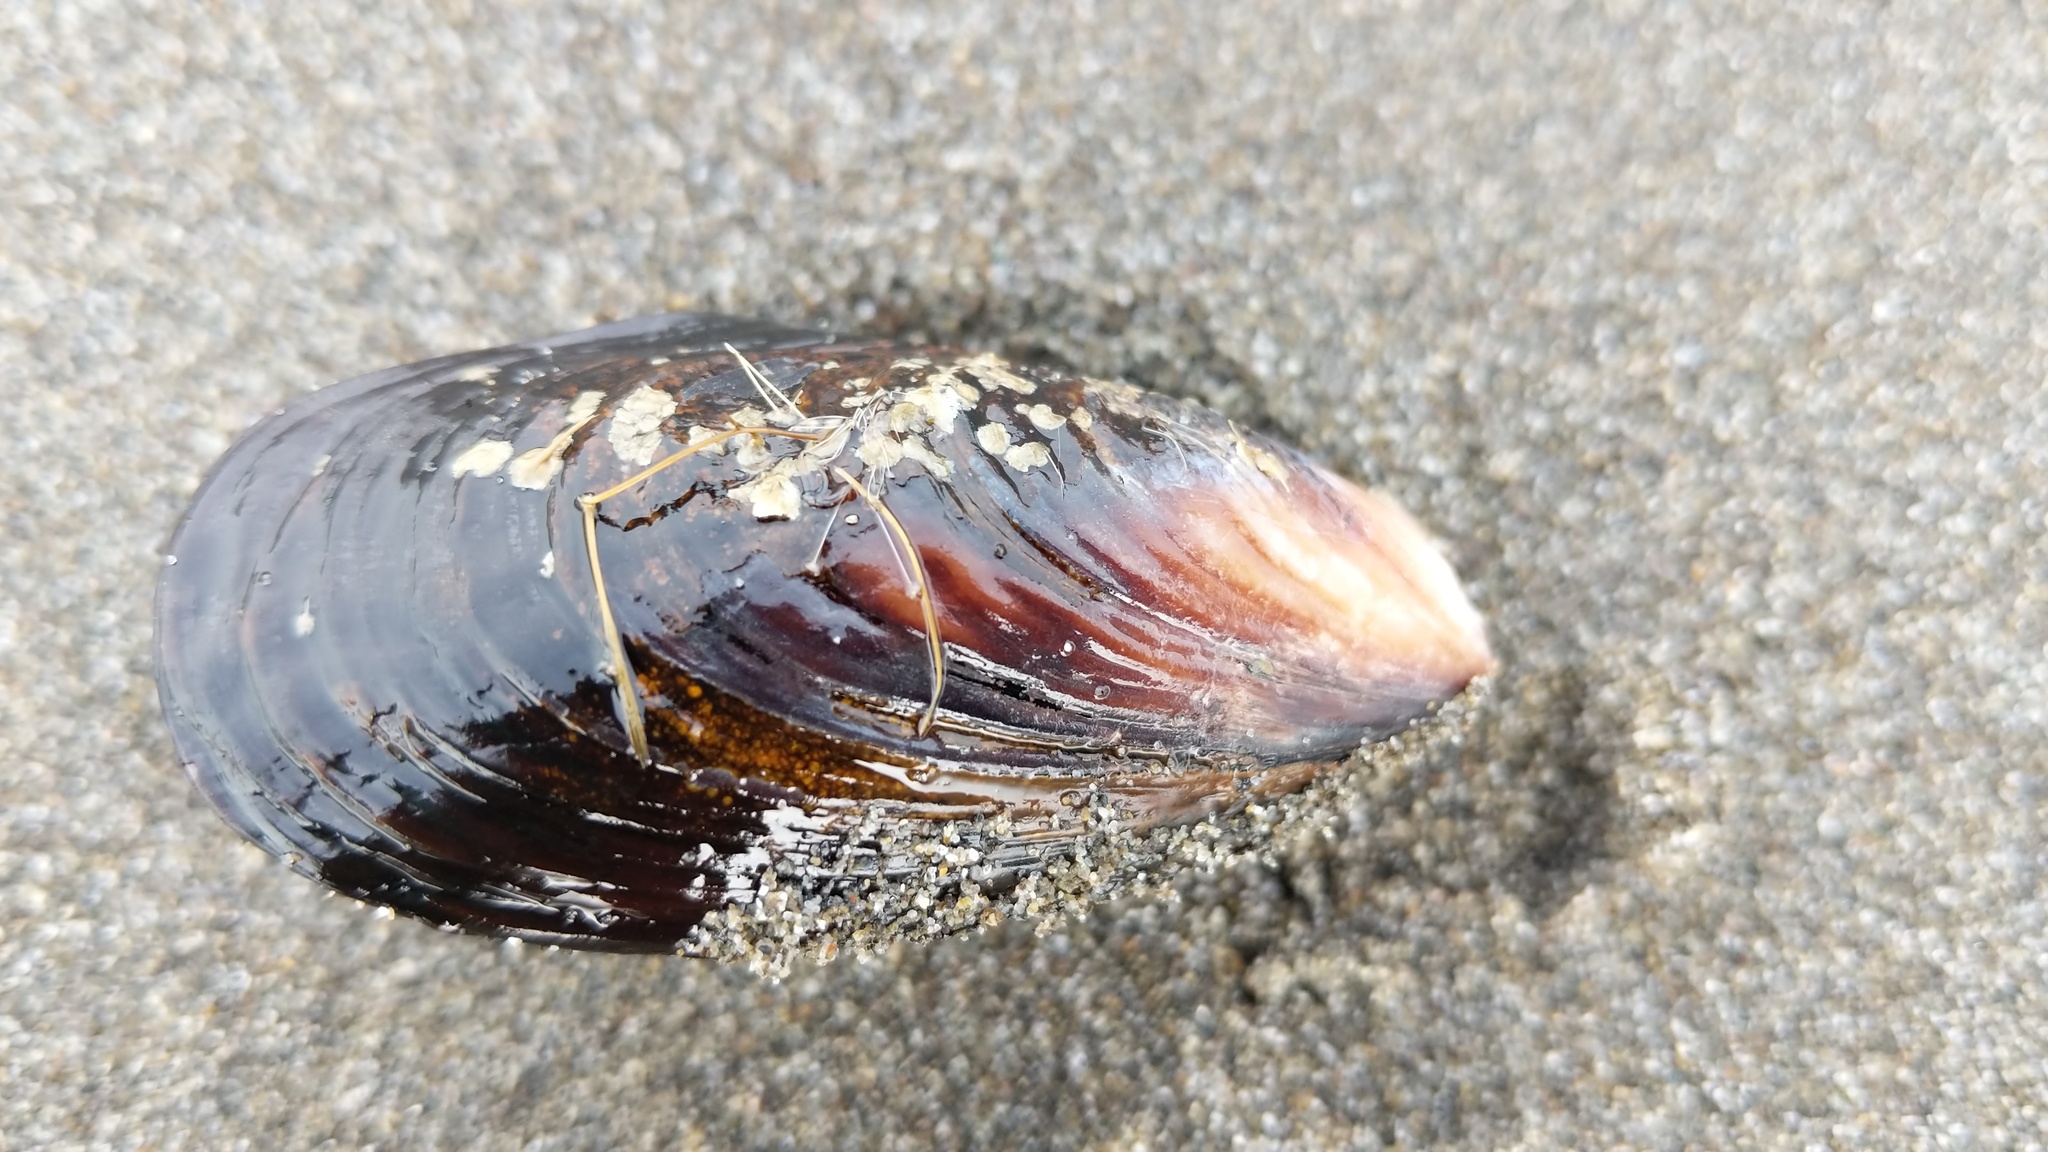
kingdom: Animalia
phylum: Mollusca
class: Bivalvia
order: Mytilida
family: Mytilidae
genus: Mytilus
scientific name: Mytilus californianus
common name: California mussel
